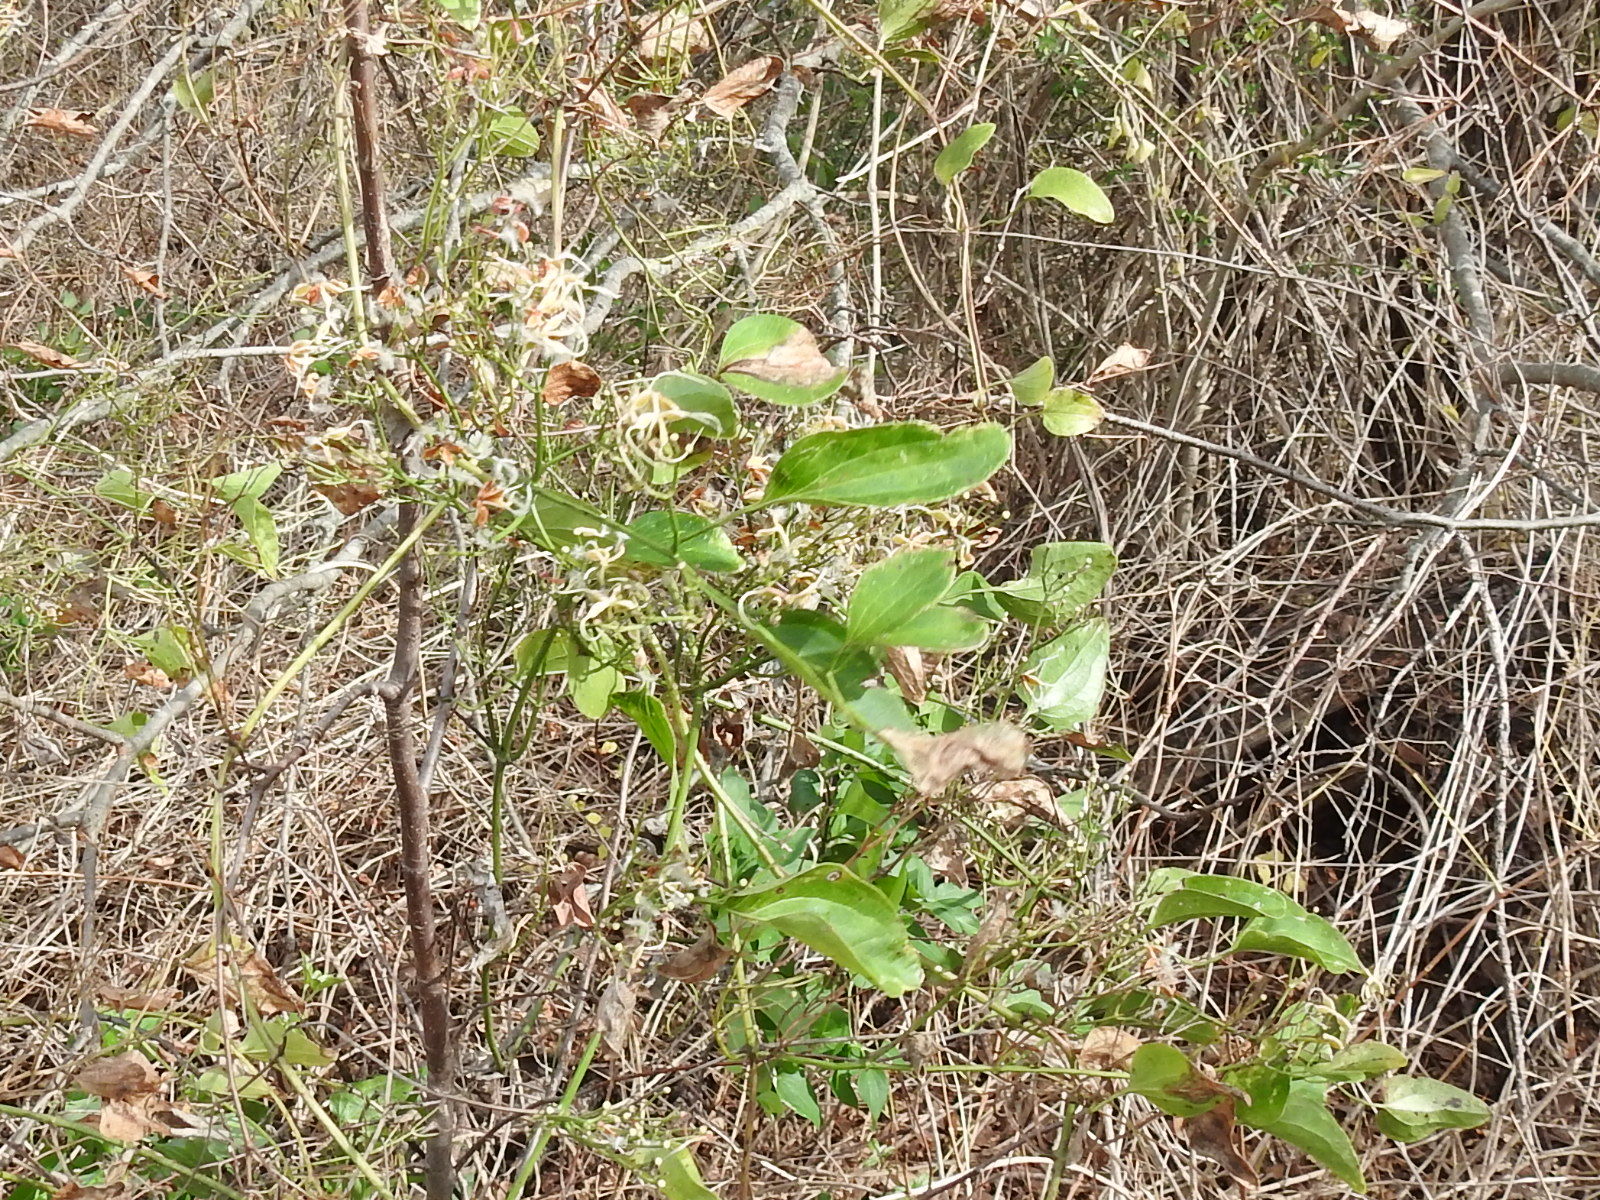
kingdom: Plantae
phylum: Tracheophyta
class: Magnoliopsida
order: Ranunculales
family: Ranunculaceae
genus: Clematis
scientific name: Clematis terniflora
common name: Sweet autumn clematis
